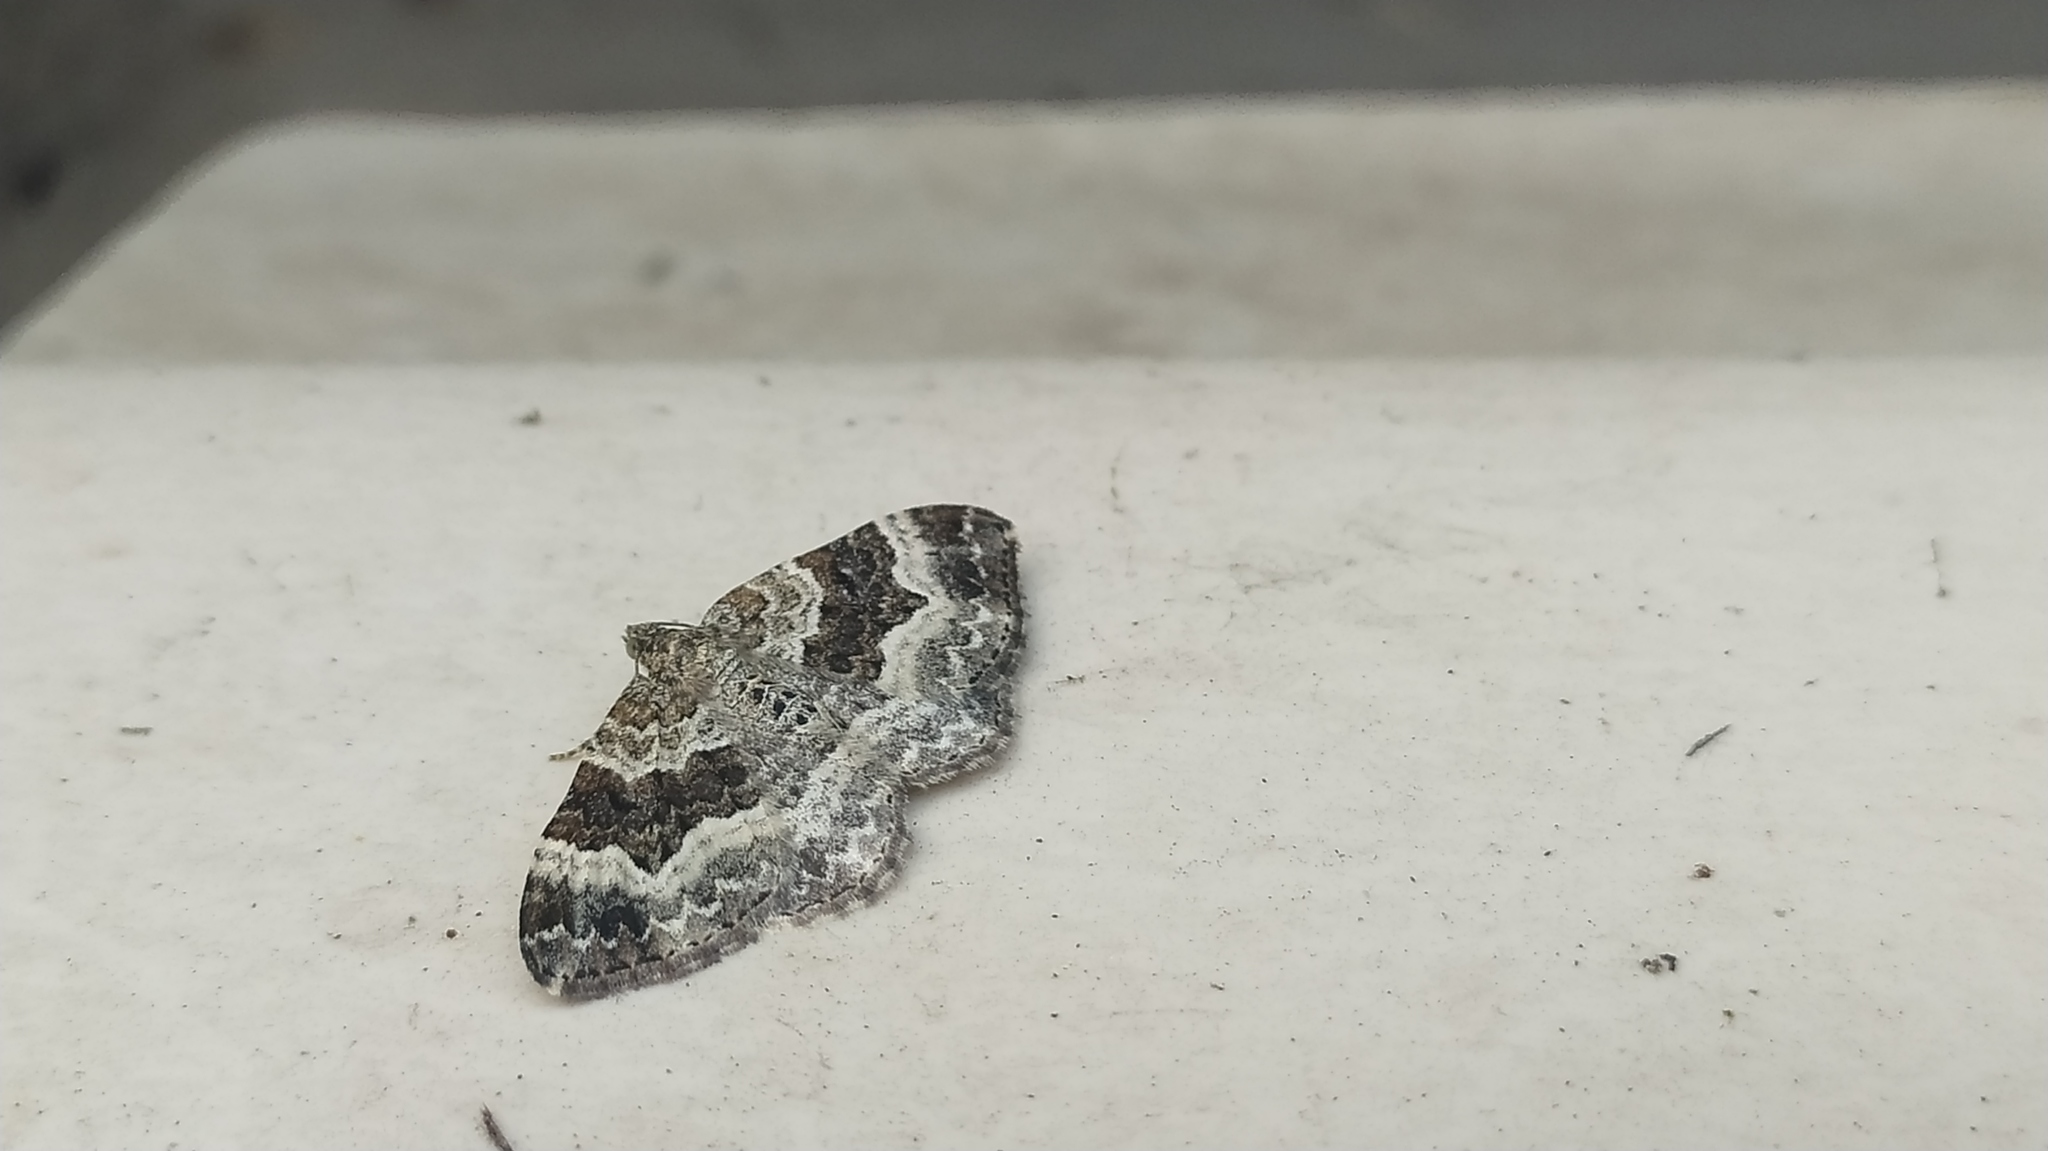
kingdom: Animalia
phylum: Arthropoda
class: Insecta
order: Lepidoptera
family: Geometridae
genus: Epirrhoe
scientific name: Epirrhoe alternata
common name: Common carpet
